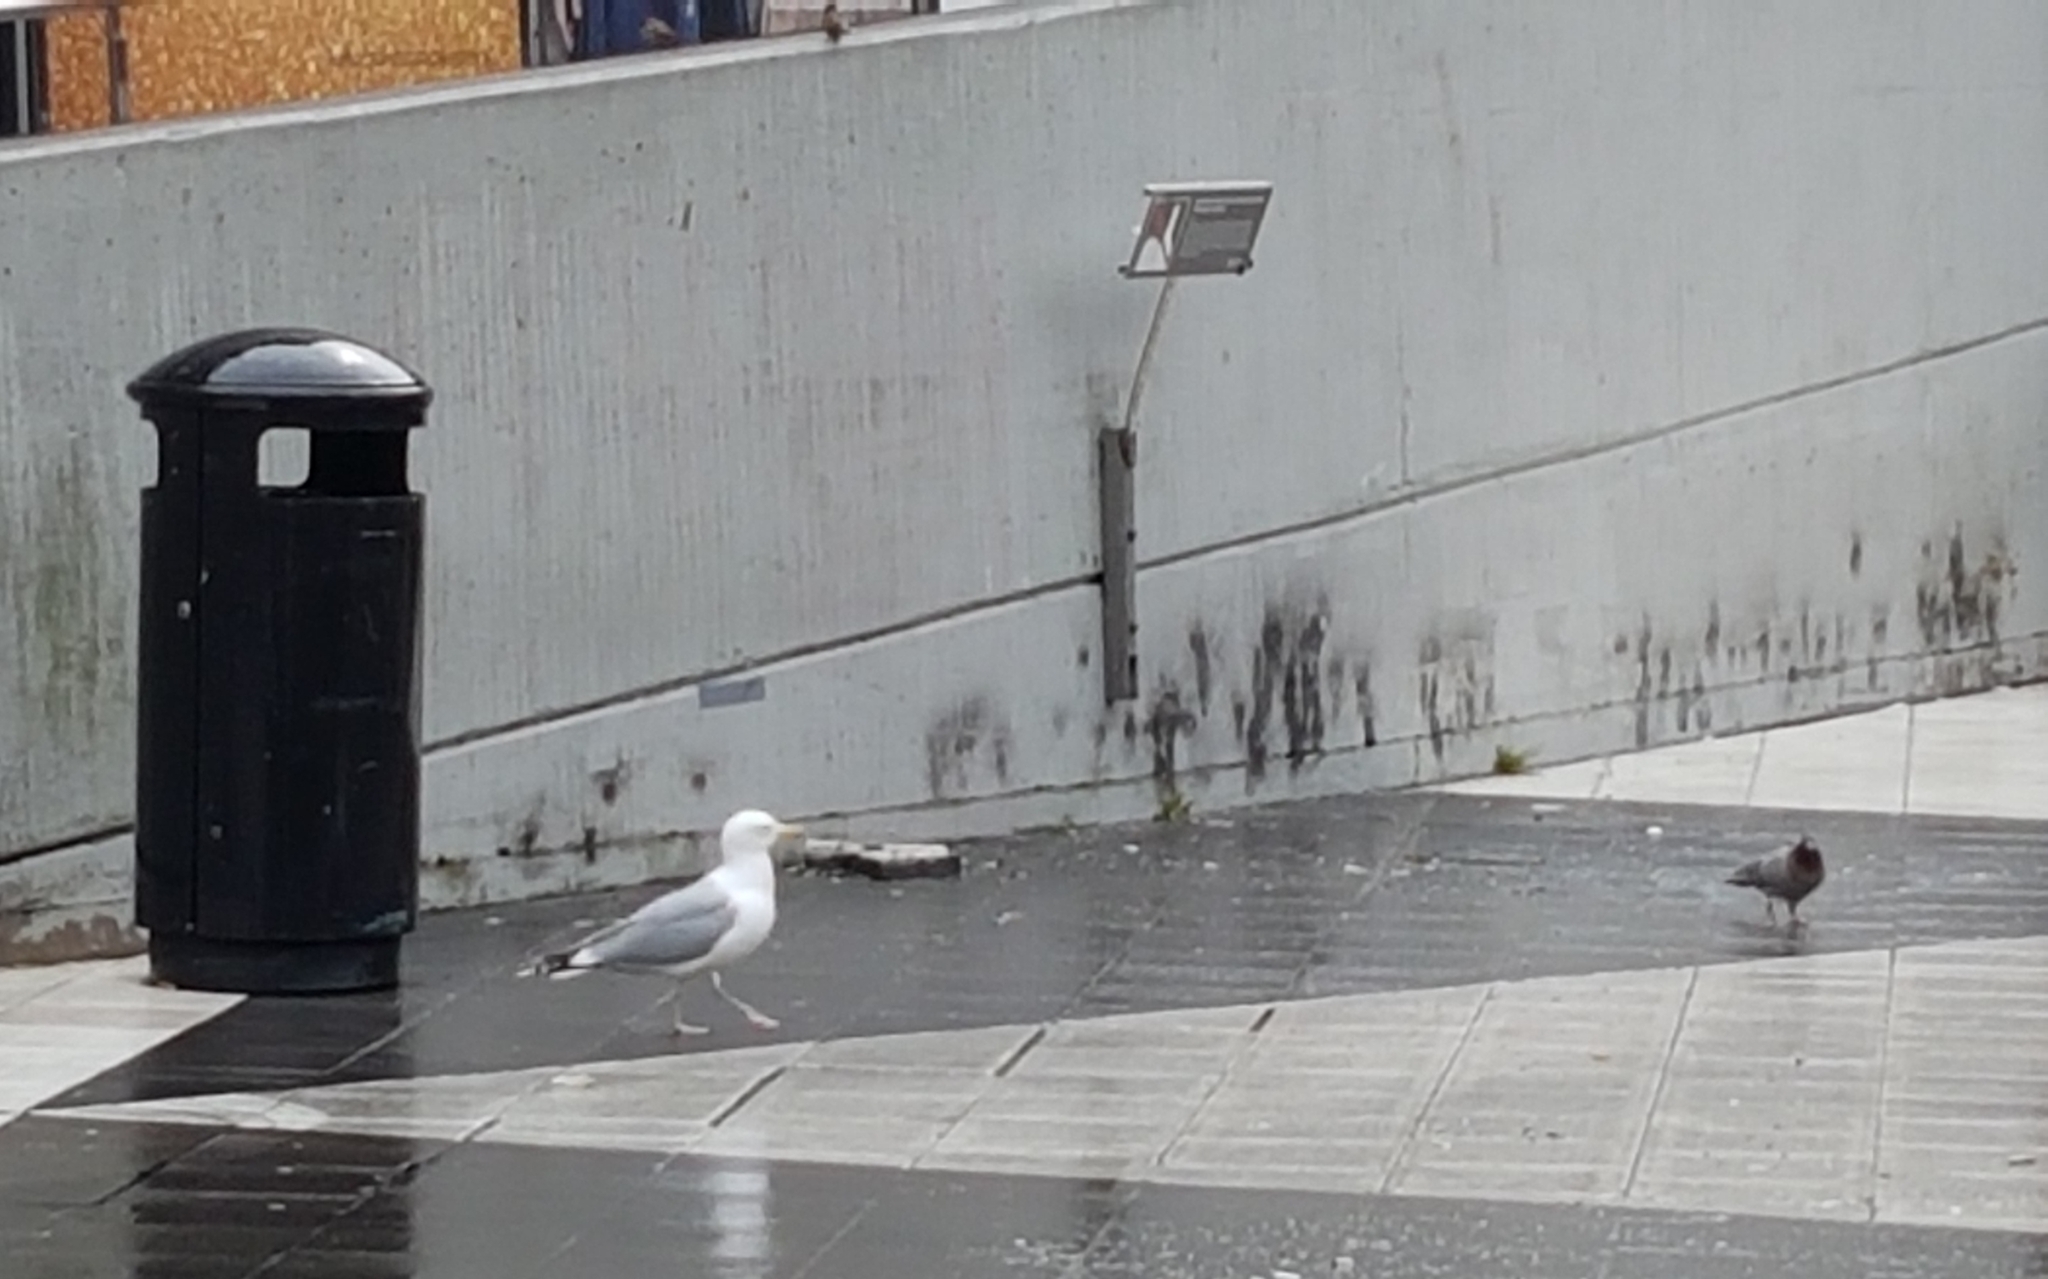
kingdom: Animalia
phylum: Chordata
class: Aves
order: Charadriiformes
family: Laridae
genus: Larus
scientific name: Larus argentatus
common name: Herring gull
